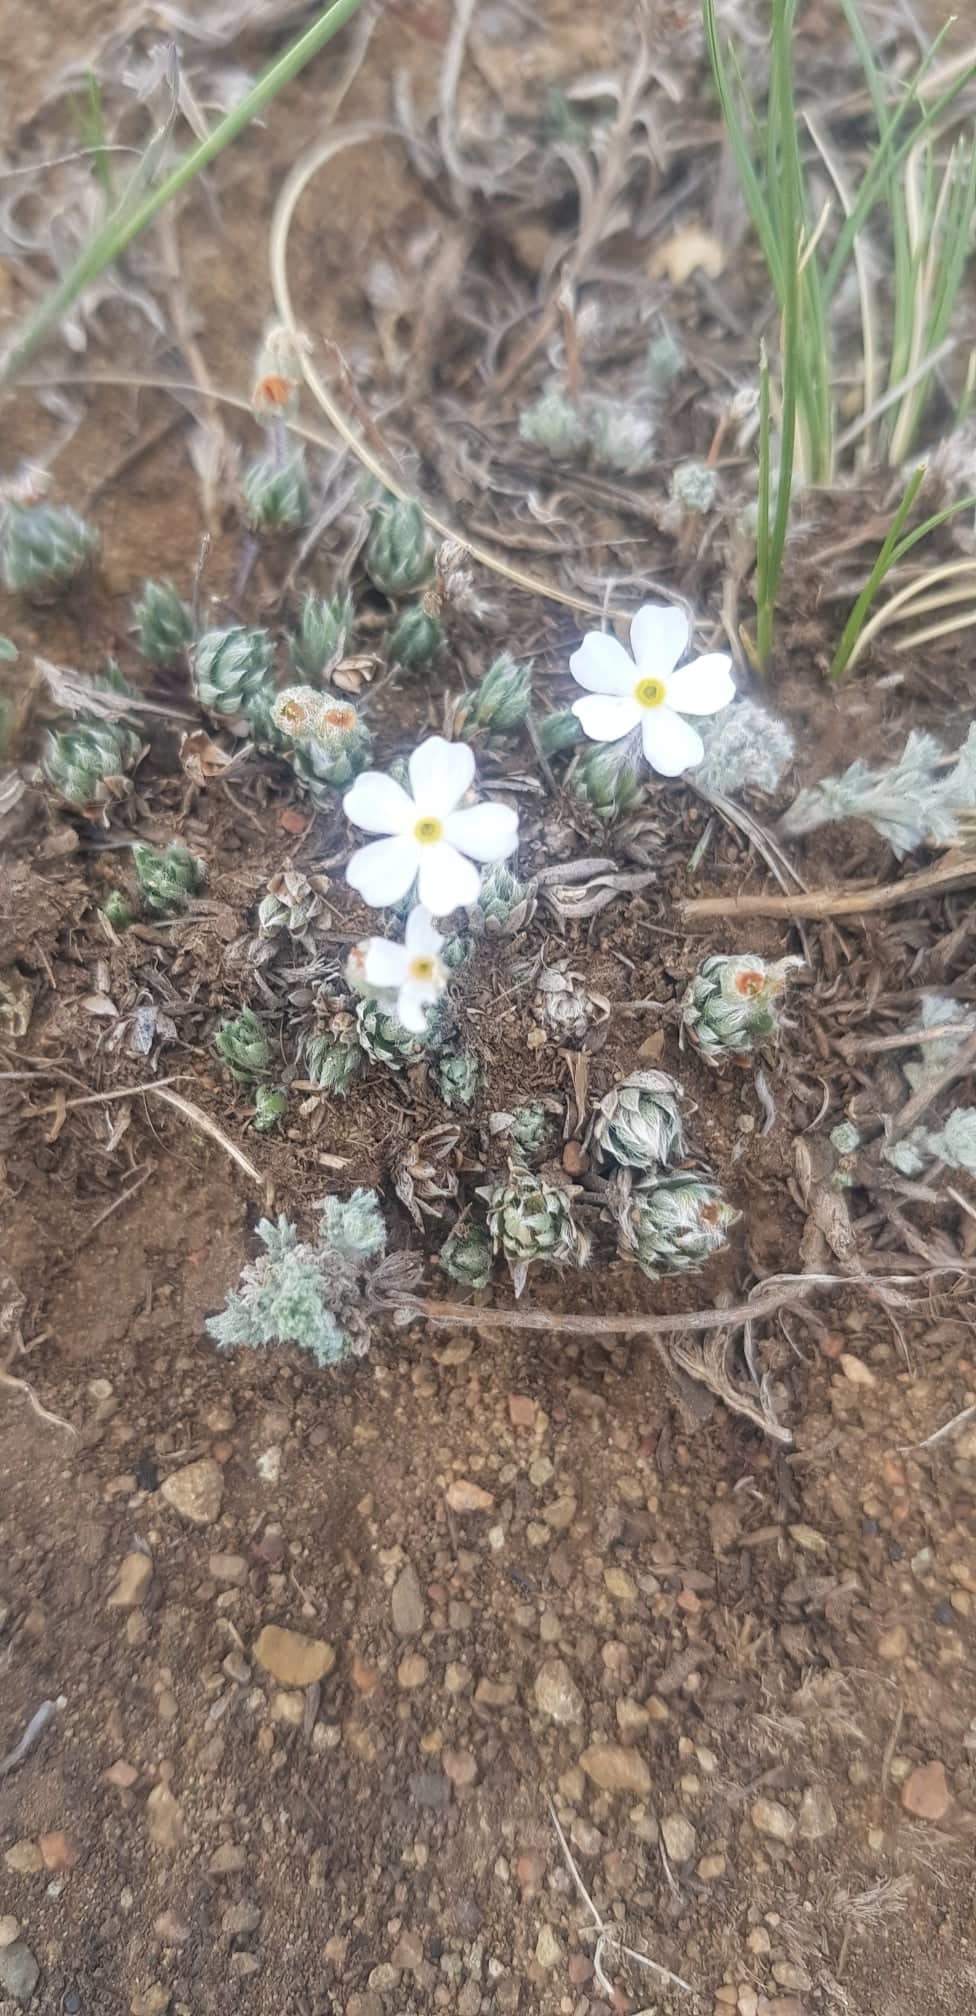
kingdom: Plantae
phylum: Tracheophyta
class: Magnoliopsida
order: Ericales
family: Primulaceae
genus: Androsace
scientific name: Androsace incana
